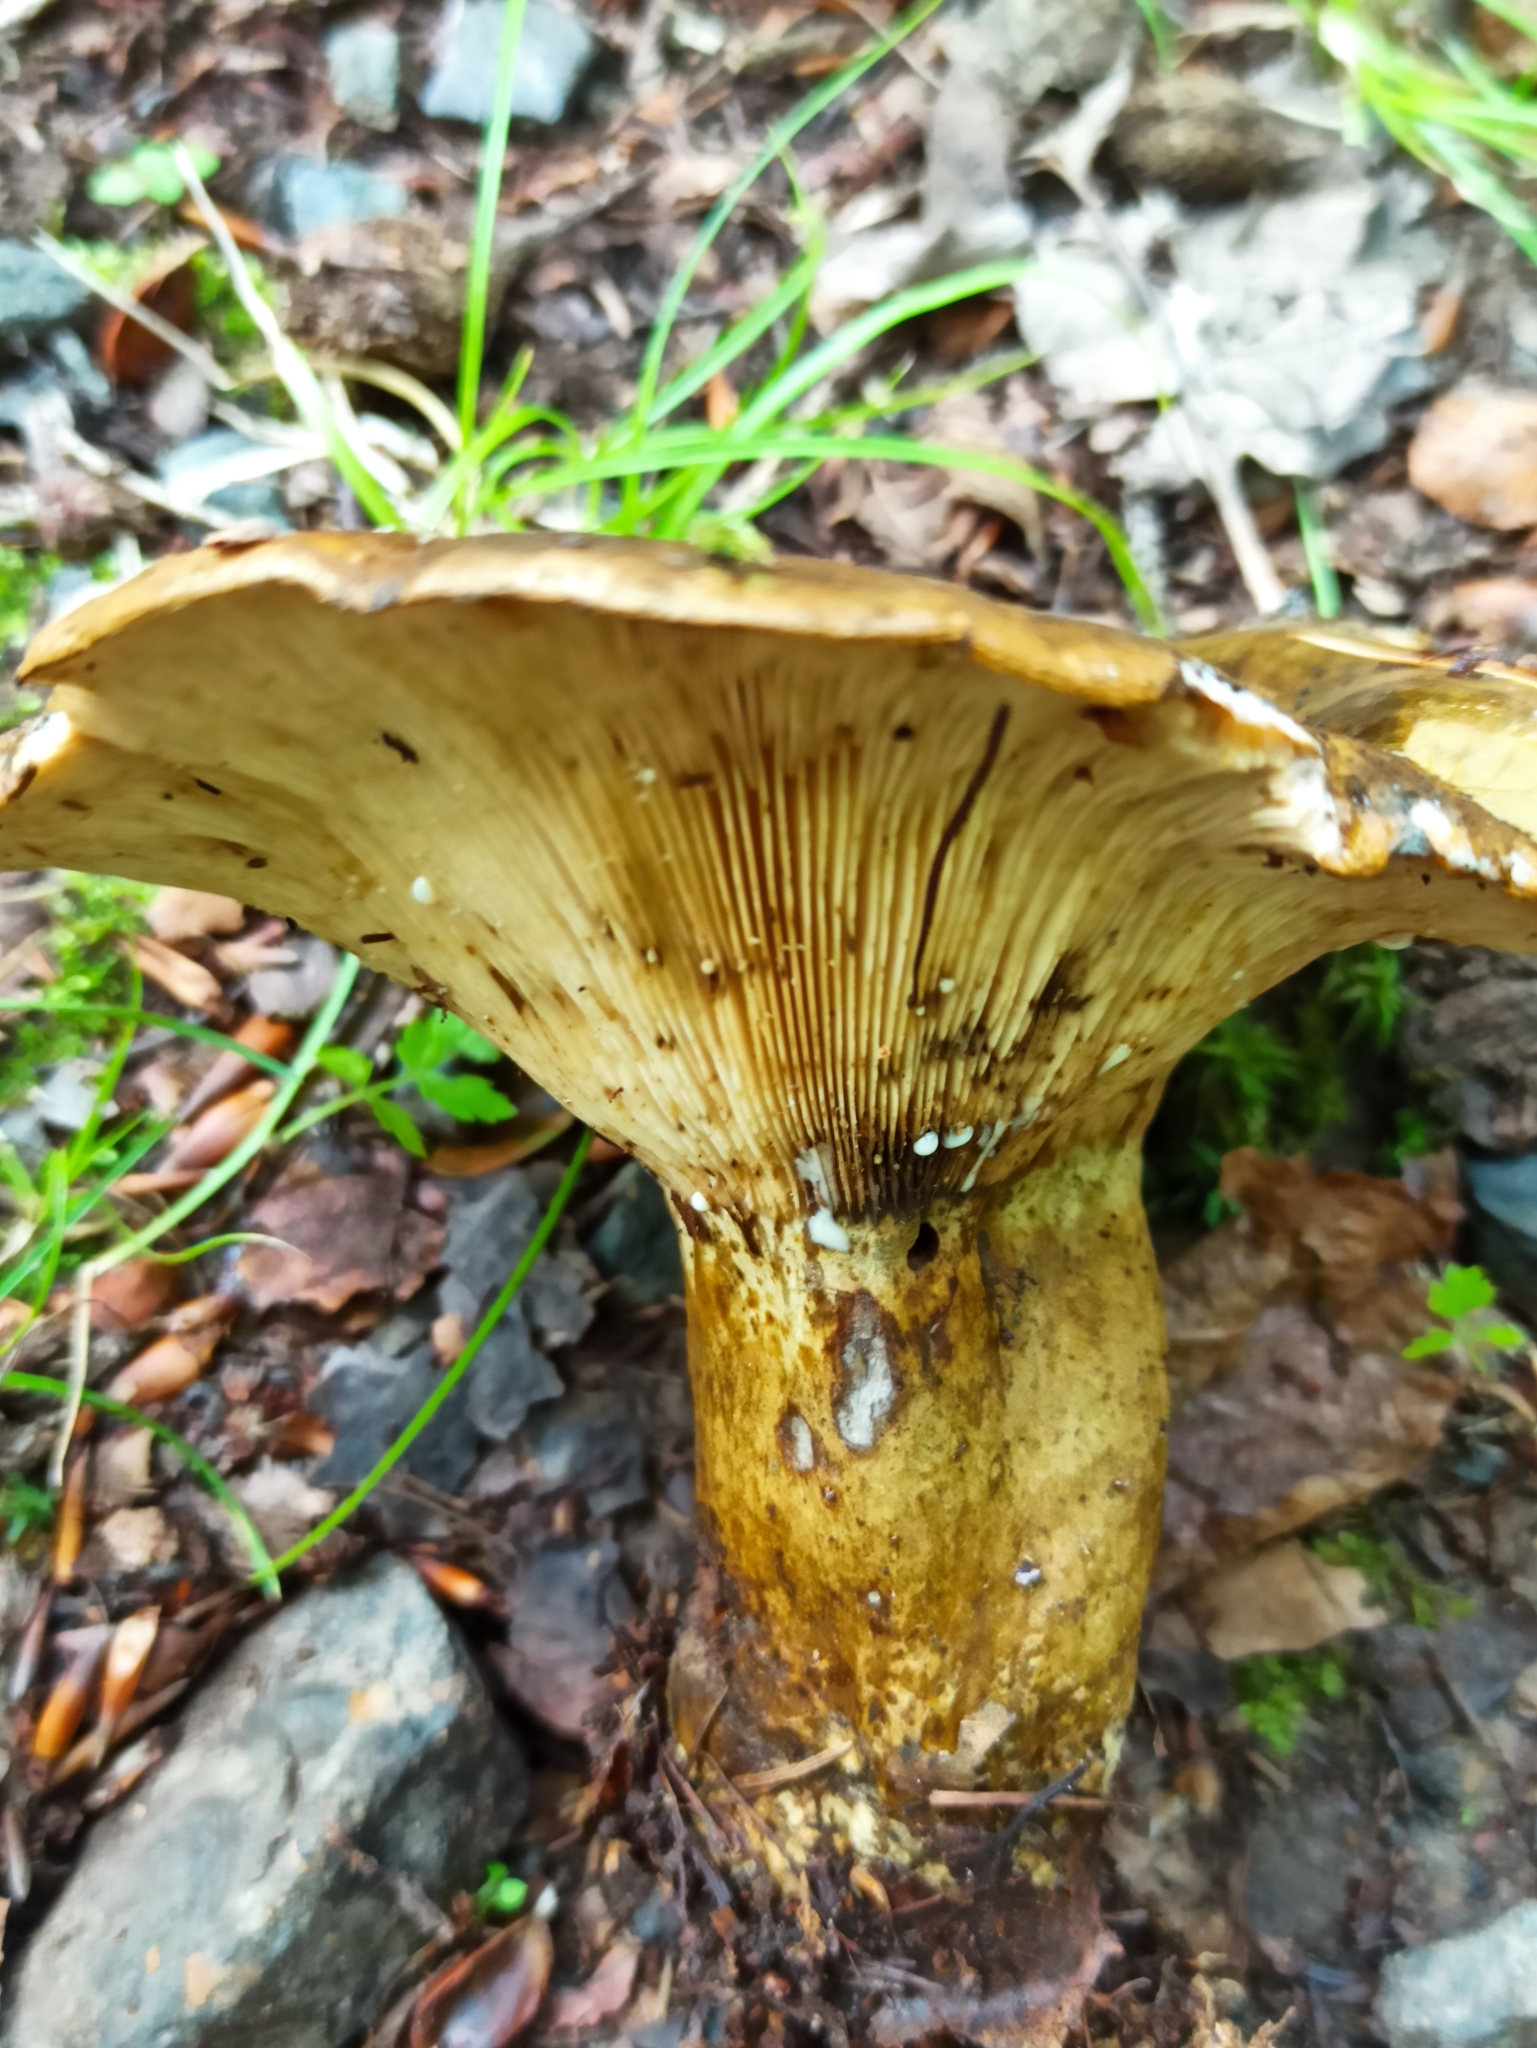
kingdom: Fungi
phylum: Basidiomycota
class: Agaricomycetes
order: Russulales
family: Russulaceae
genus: Lactarius
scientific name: Lactarius turpis
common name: Ugly milk-cap
